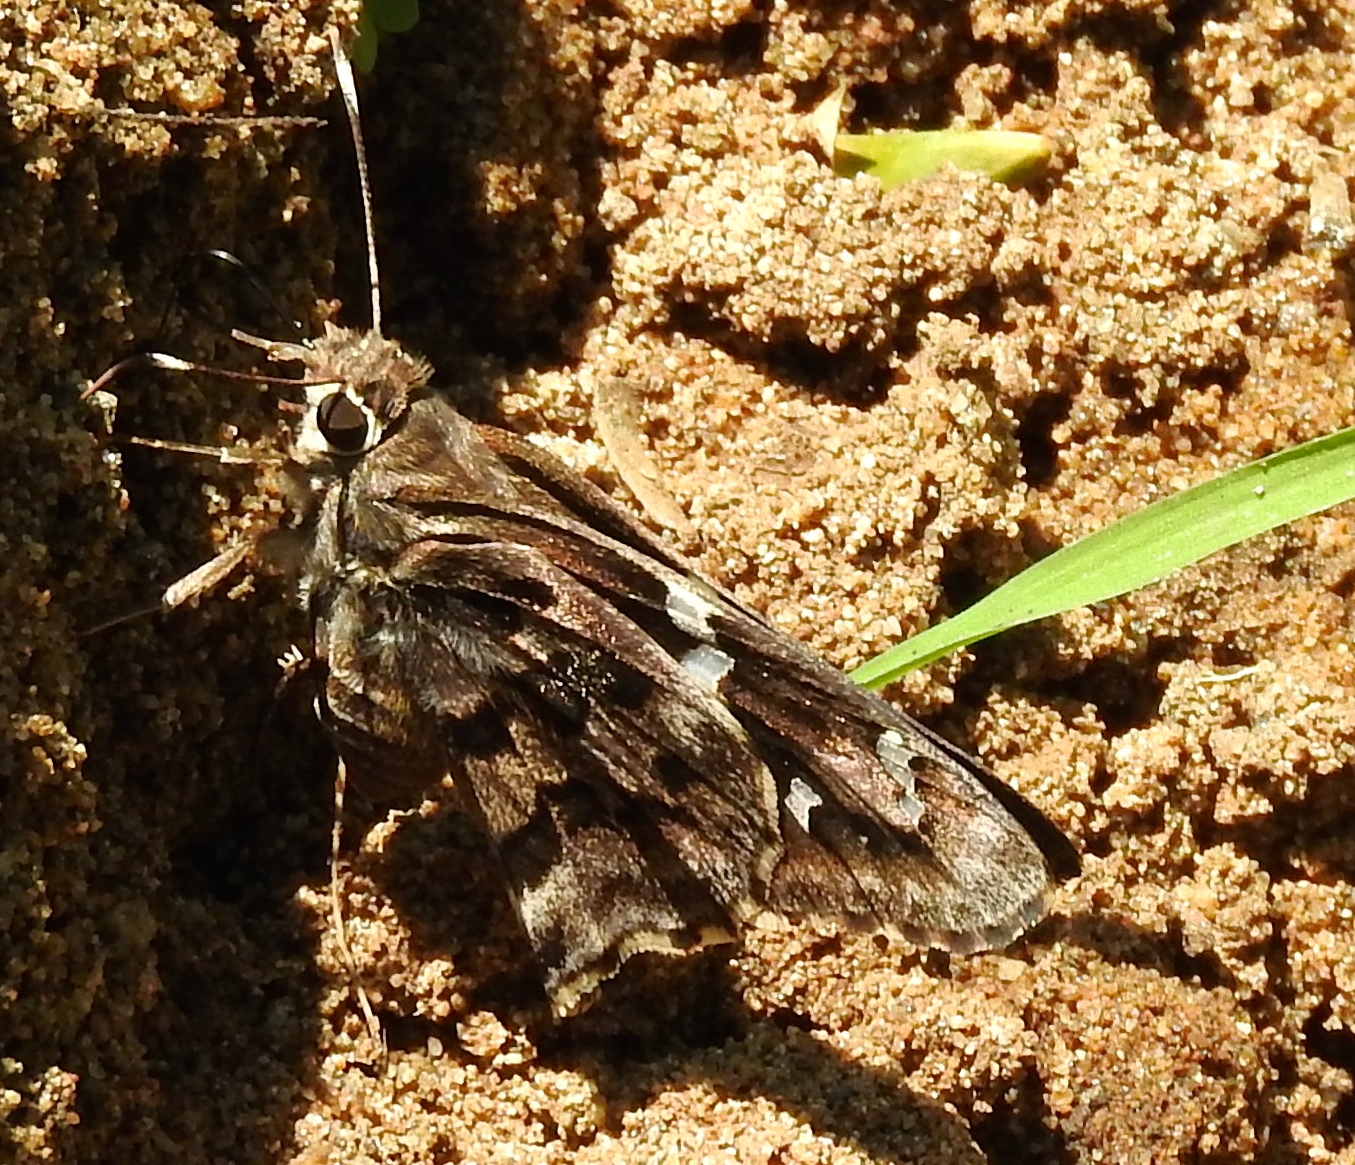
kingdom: Animalia
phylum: Arthropoda
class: Insecta
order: Lepidoptera
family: Hesperiidae
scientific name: Hesperiidae
